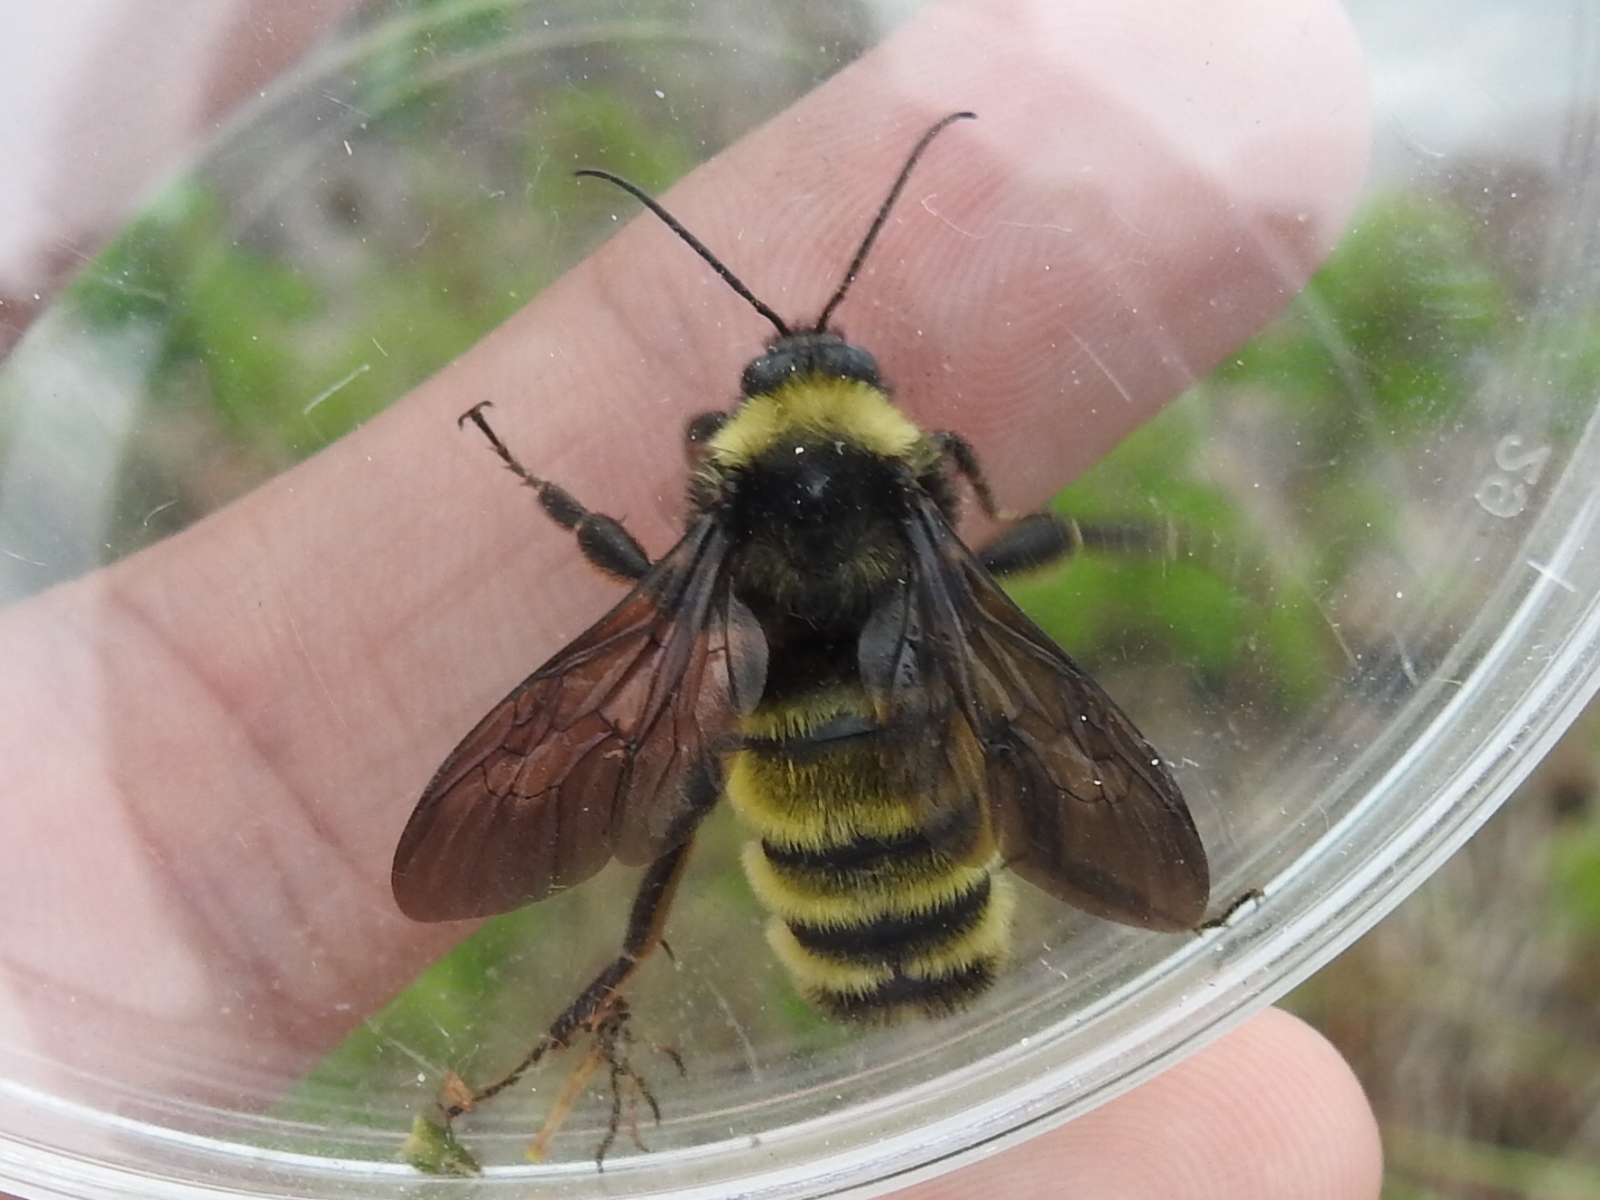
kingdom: Animalia
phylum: Arthropoda
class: Insecta
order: Hymenoptera
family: Apidae
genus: Bombus
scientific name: Bombus pensylvanicus
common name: Bumble bee
